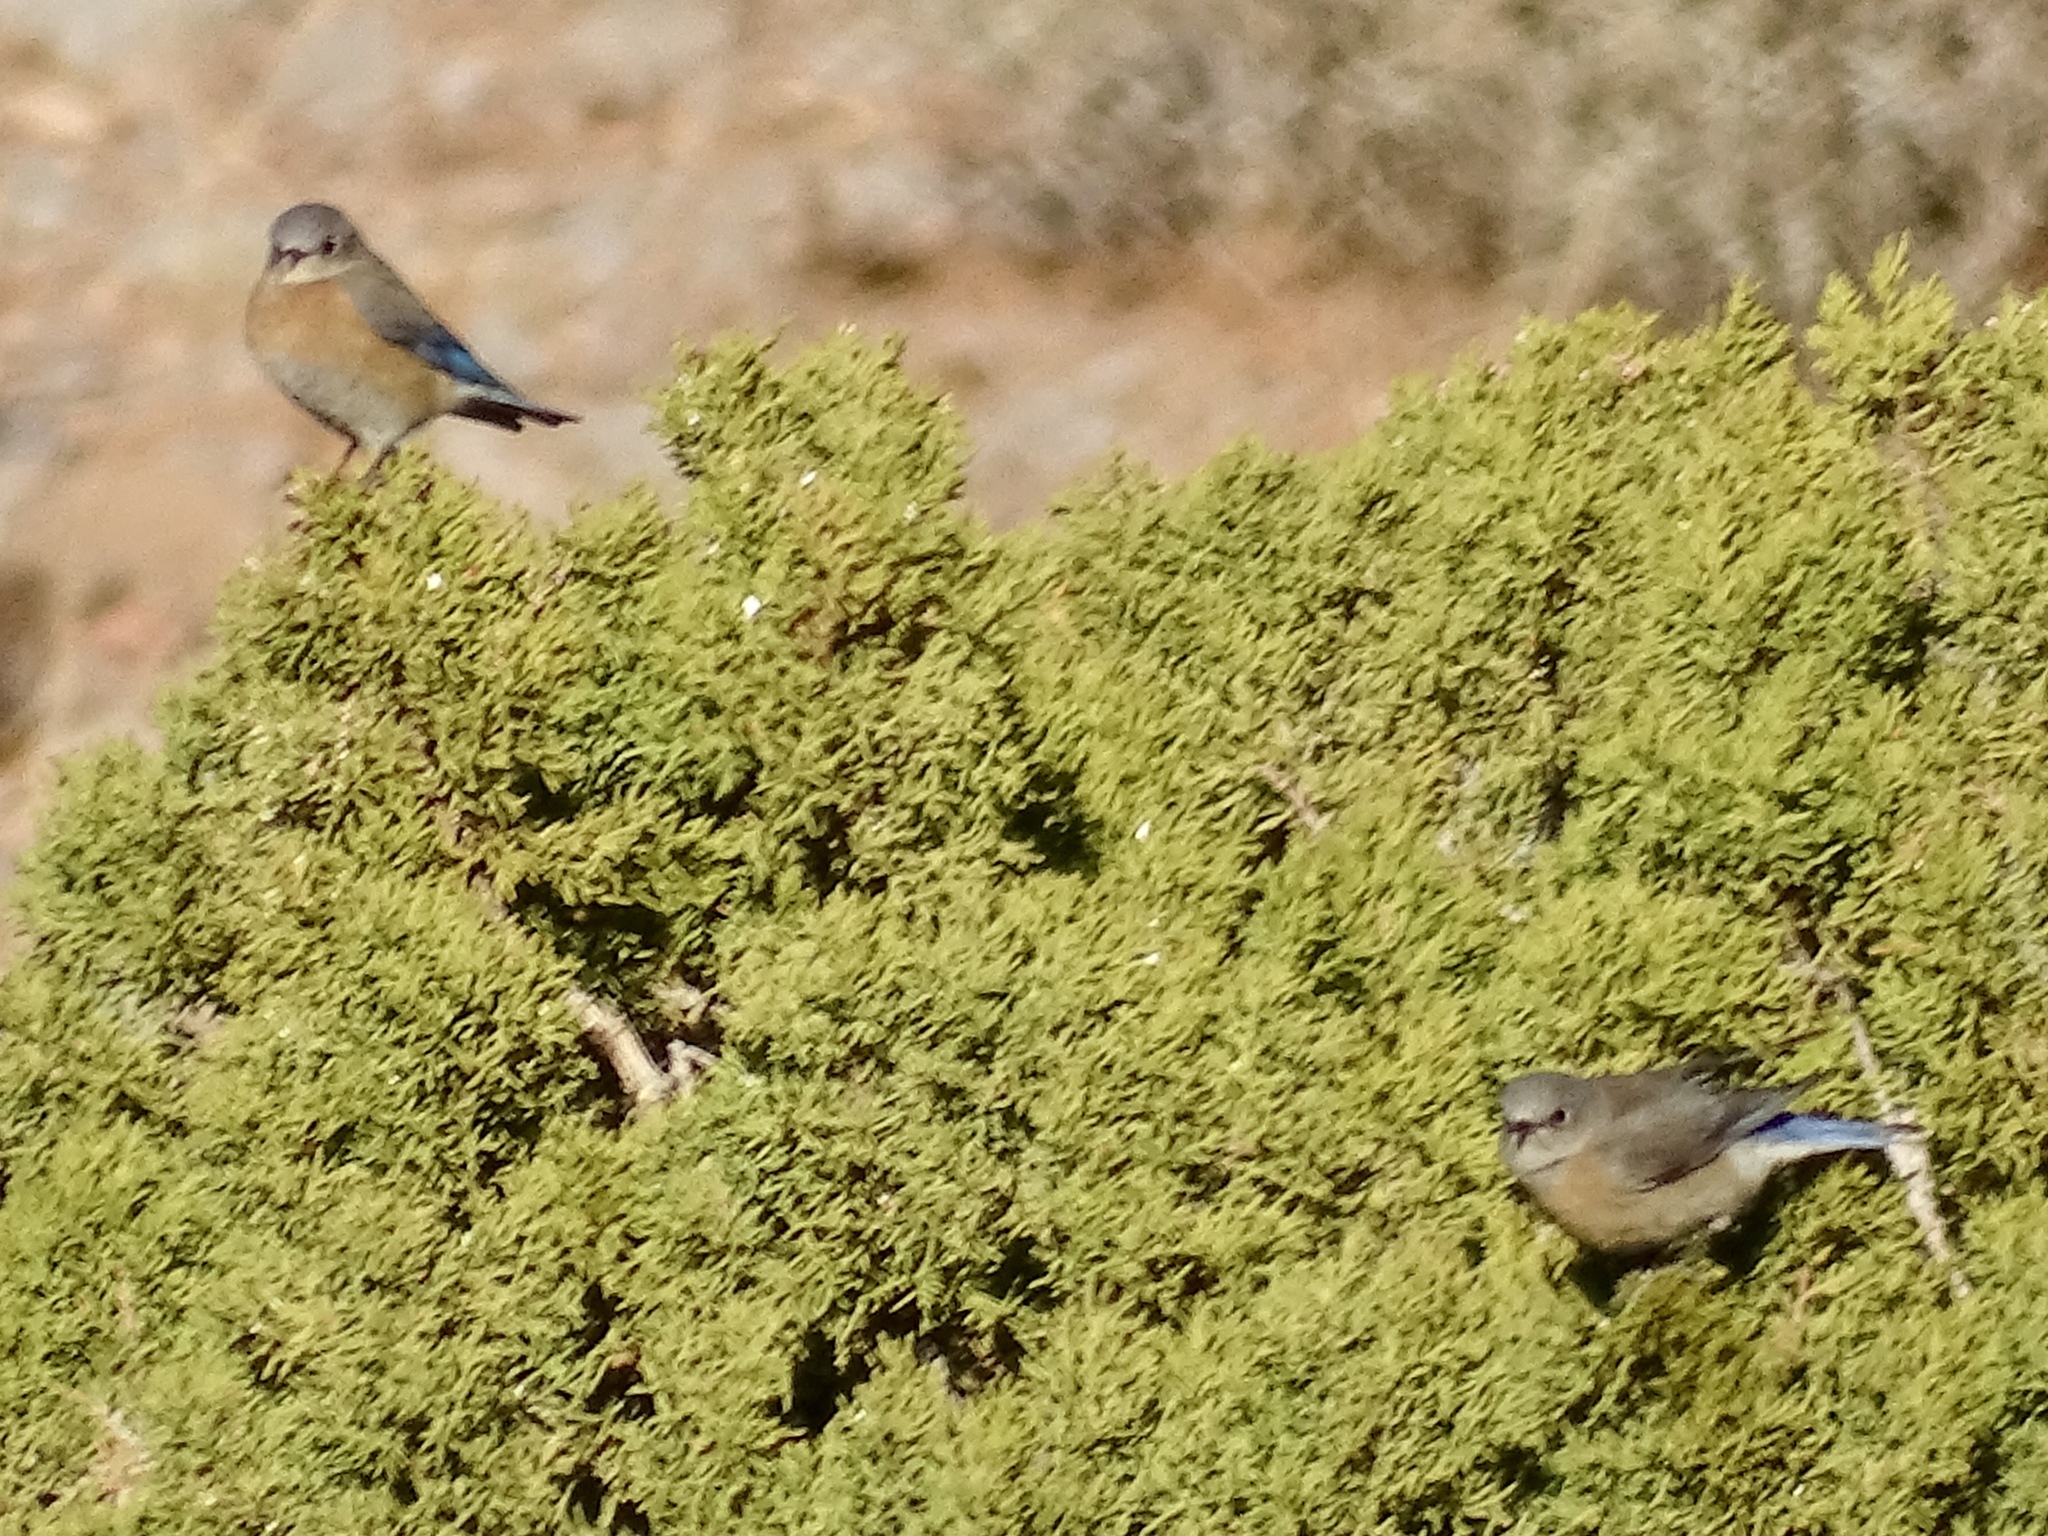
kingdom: Animalia
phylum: Chordata
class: Aves
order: Passeriformes
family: Turdidae
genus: Sialia
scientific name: Sialia mexicana
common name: Western bluebird
